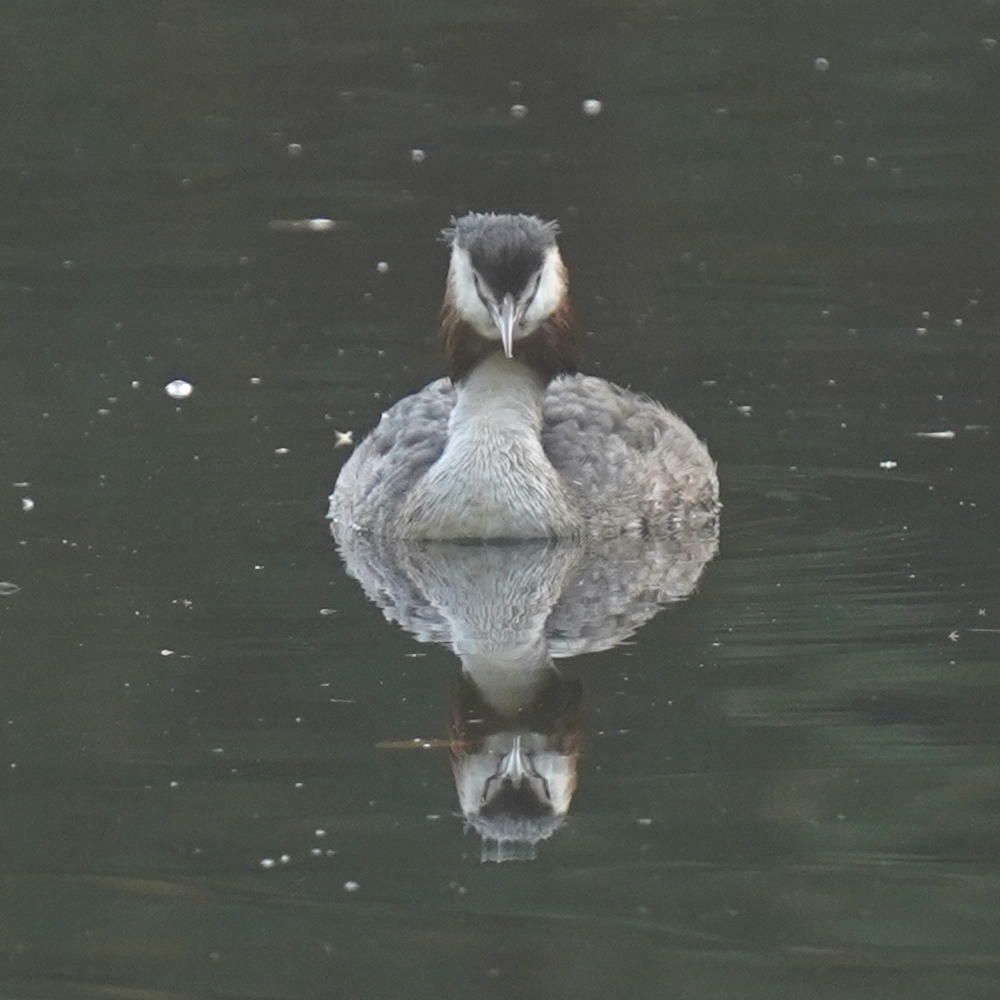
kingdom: Animalia
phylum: Chordata
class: Aves
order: Podicipediformes
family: Podicipedidae
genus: Podiceps
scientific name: Podiceps cristatus
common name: Great crested grebe
